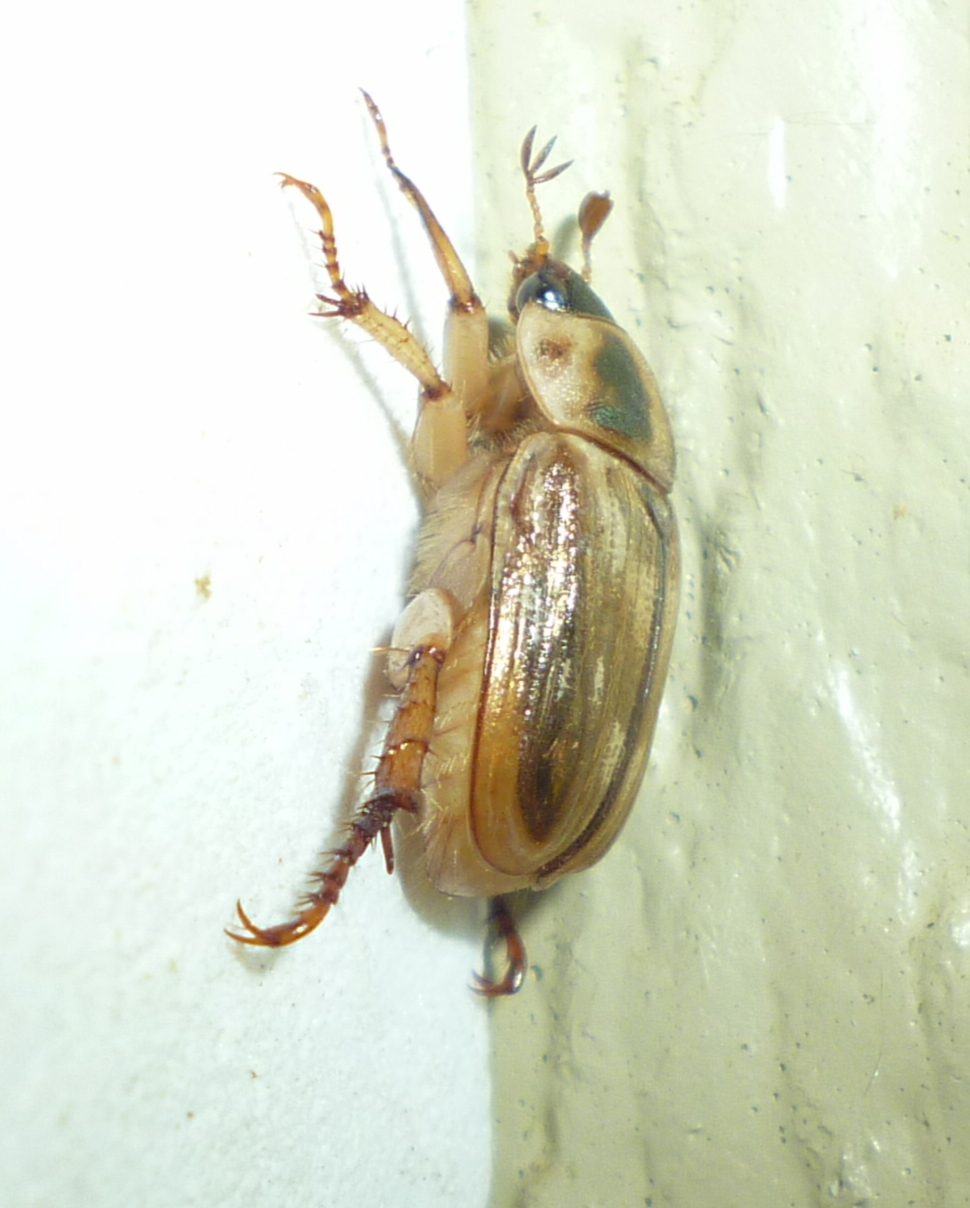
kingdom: Animalia
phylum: Arthropoda
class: Insecta
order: Coleoptera
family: Scarabaeidae
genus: Exomala
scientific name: Exomala orientalis
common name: Oriental beetle
